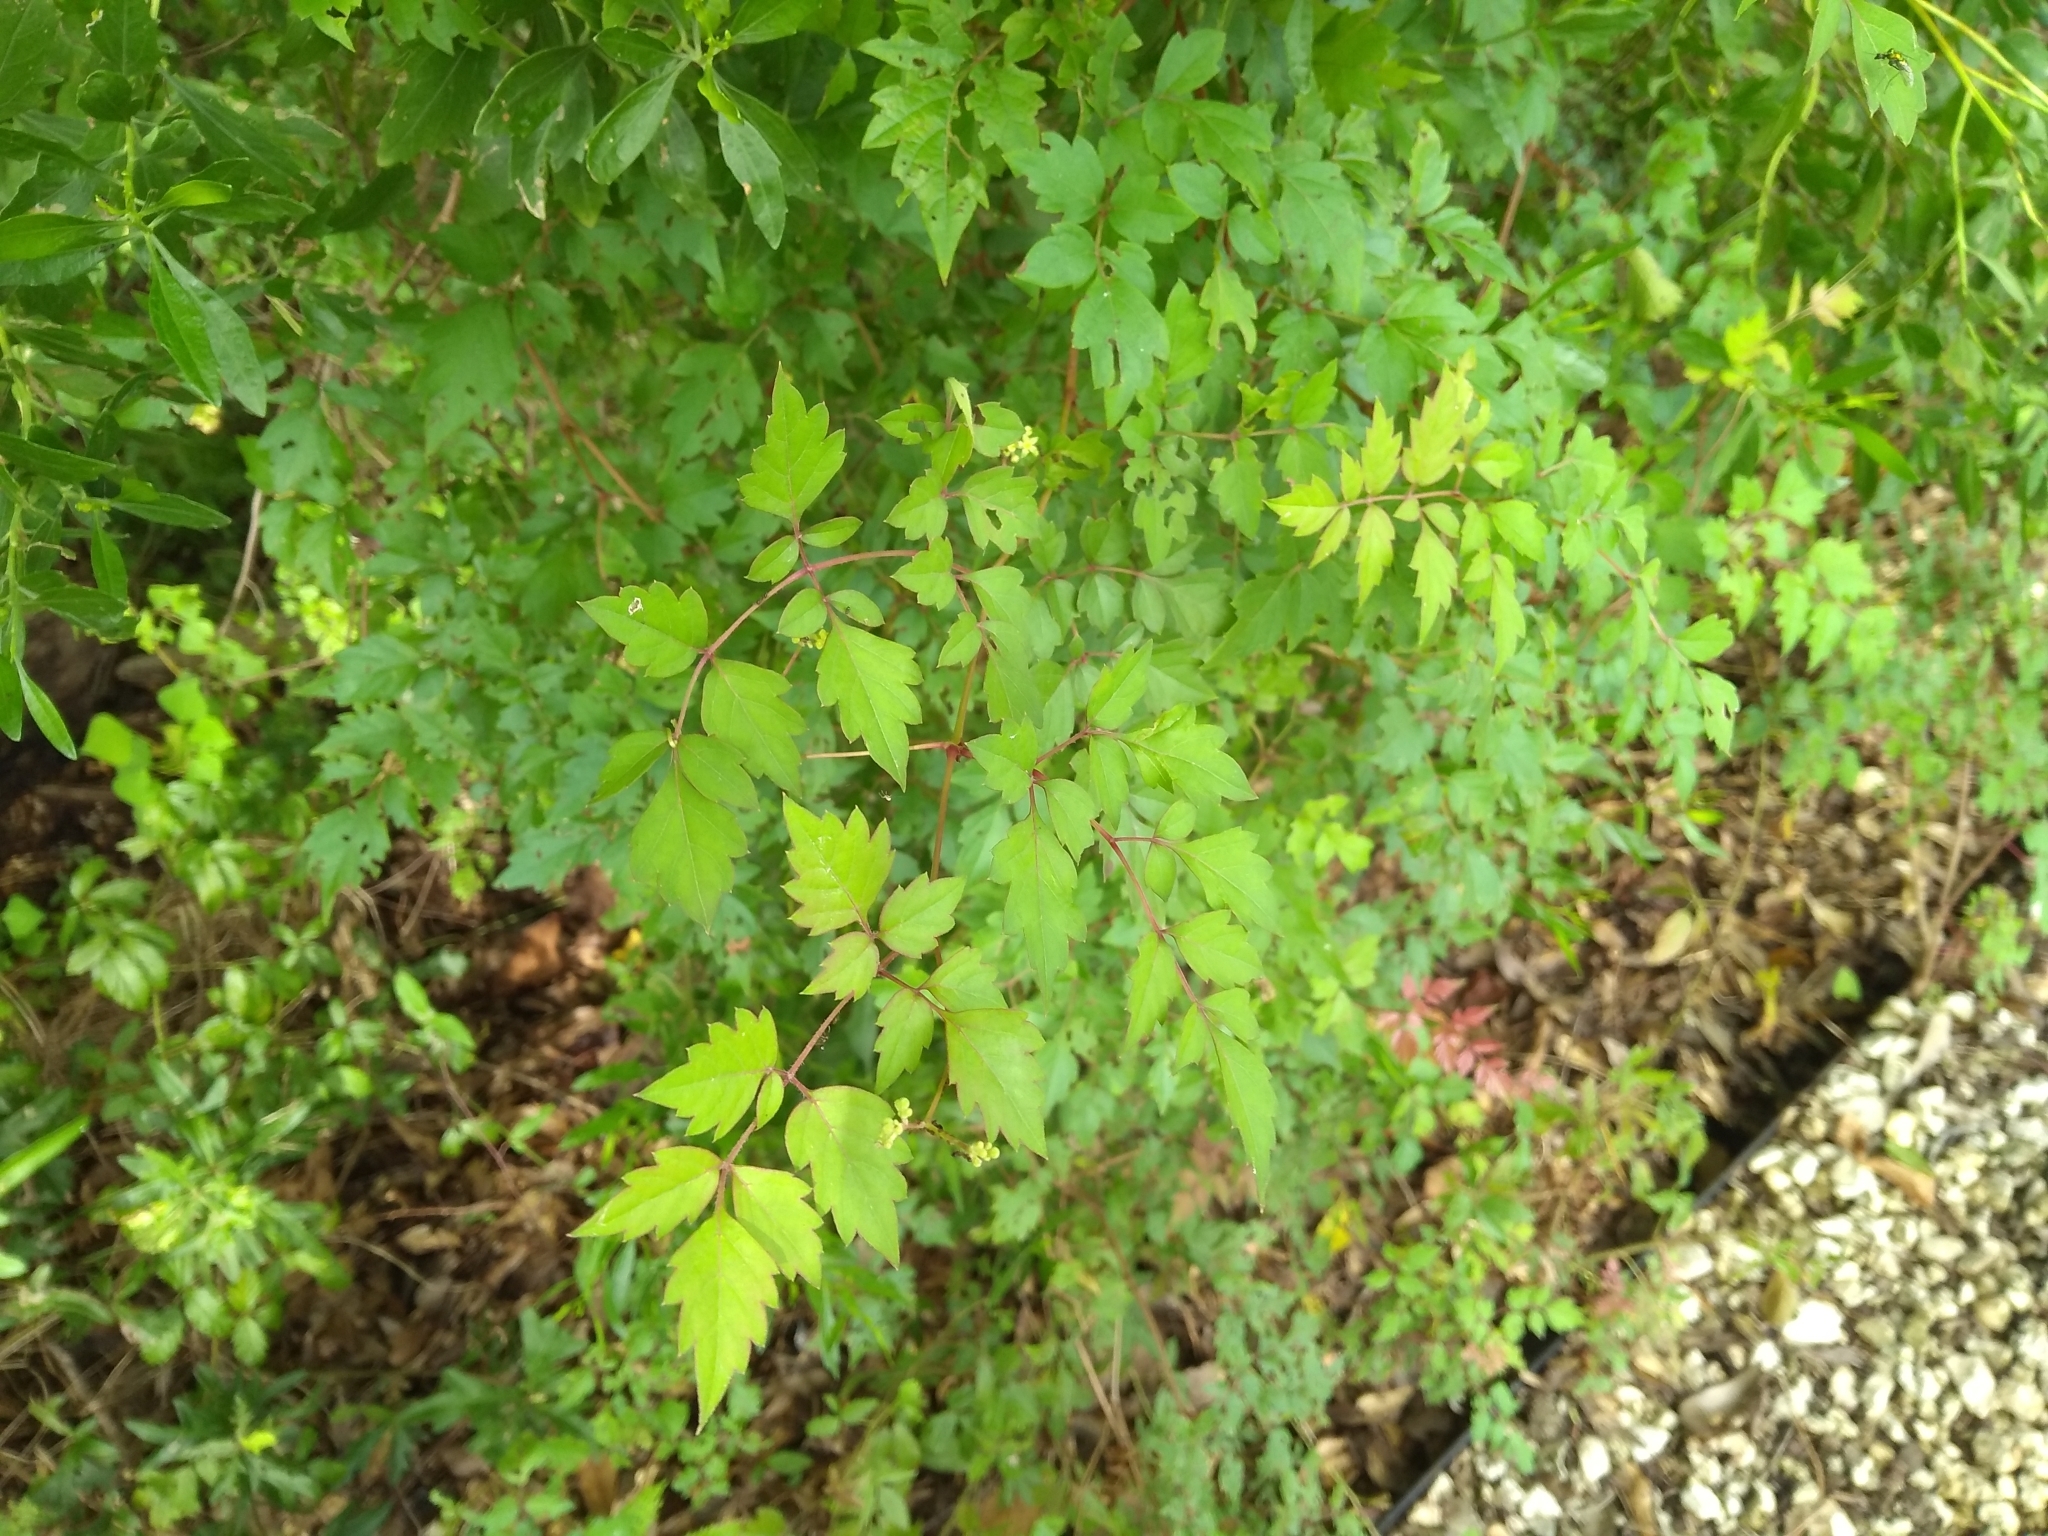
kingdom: Plantae
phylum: Tracheophyta
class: Magnoliopsida
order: Vitales
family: Vitaceae
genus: Nekemias
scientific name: Nekemias arborea
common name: Peppervine
